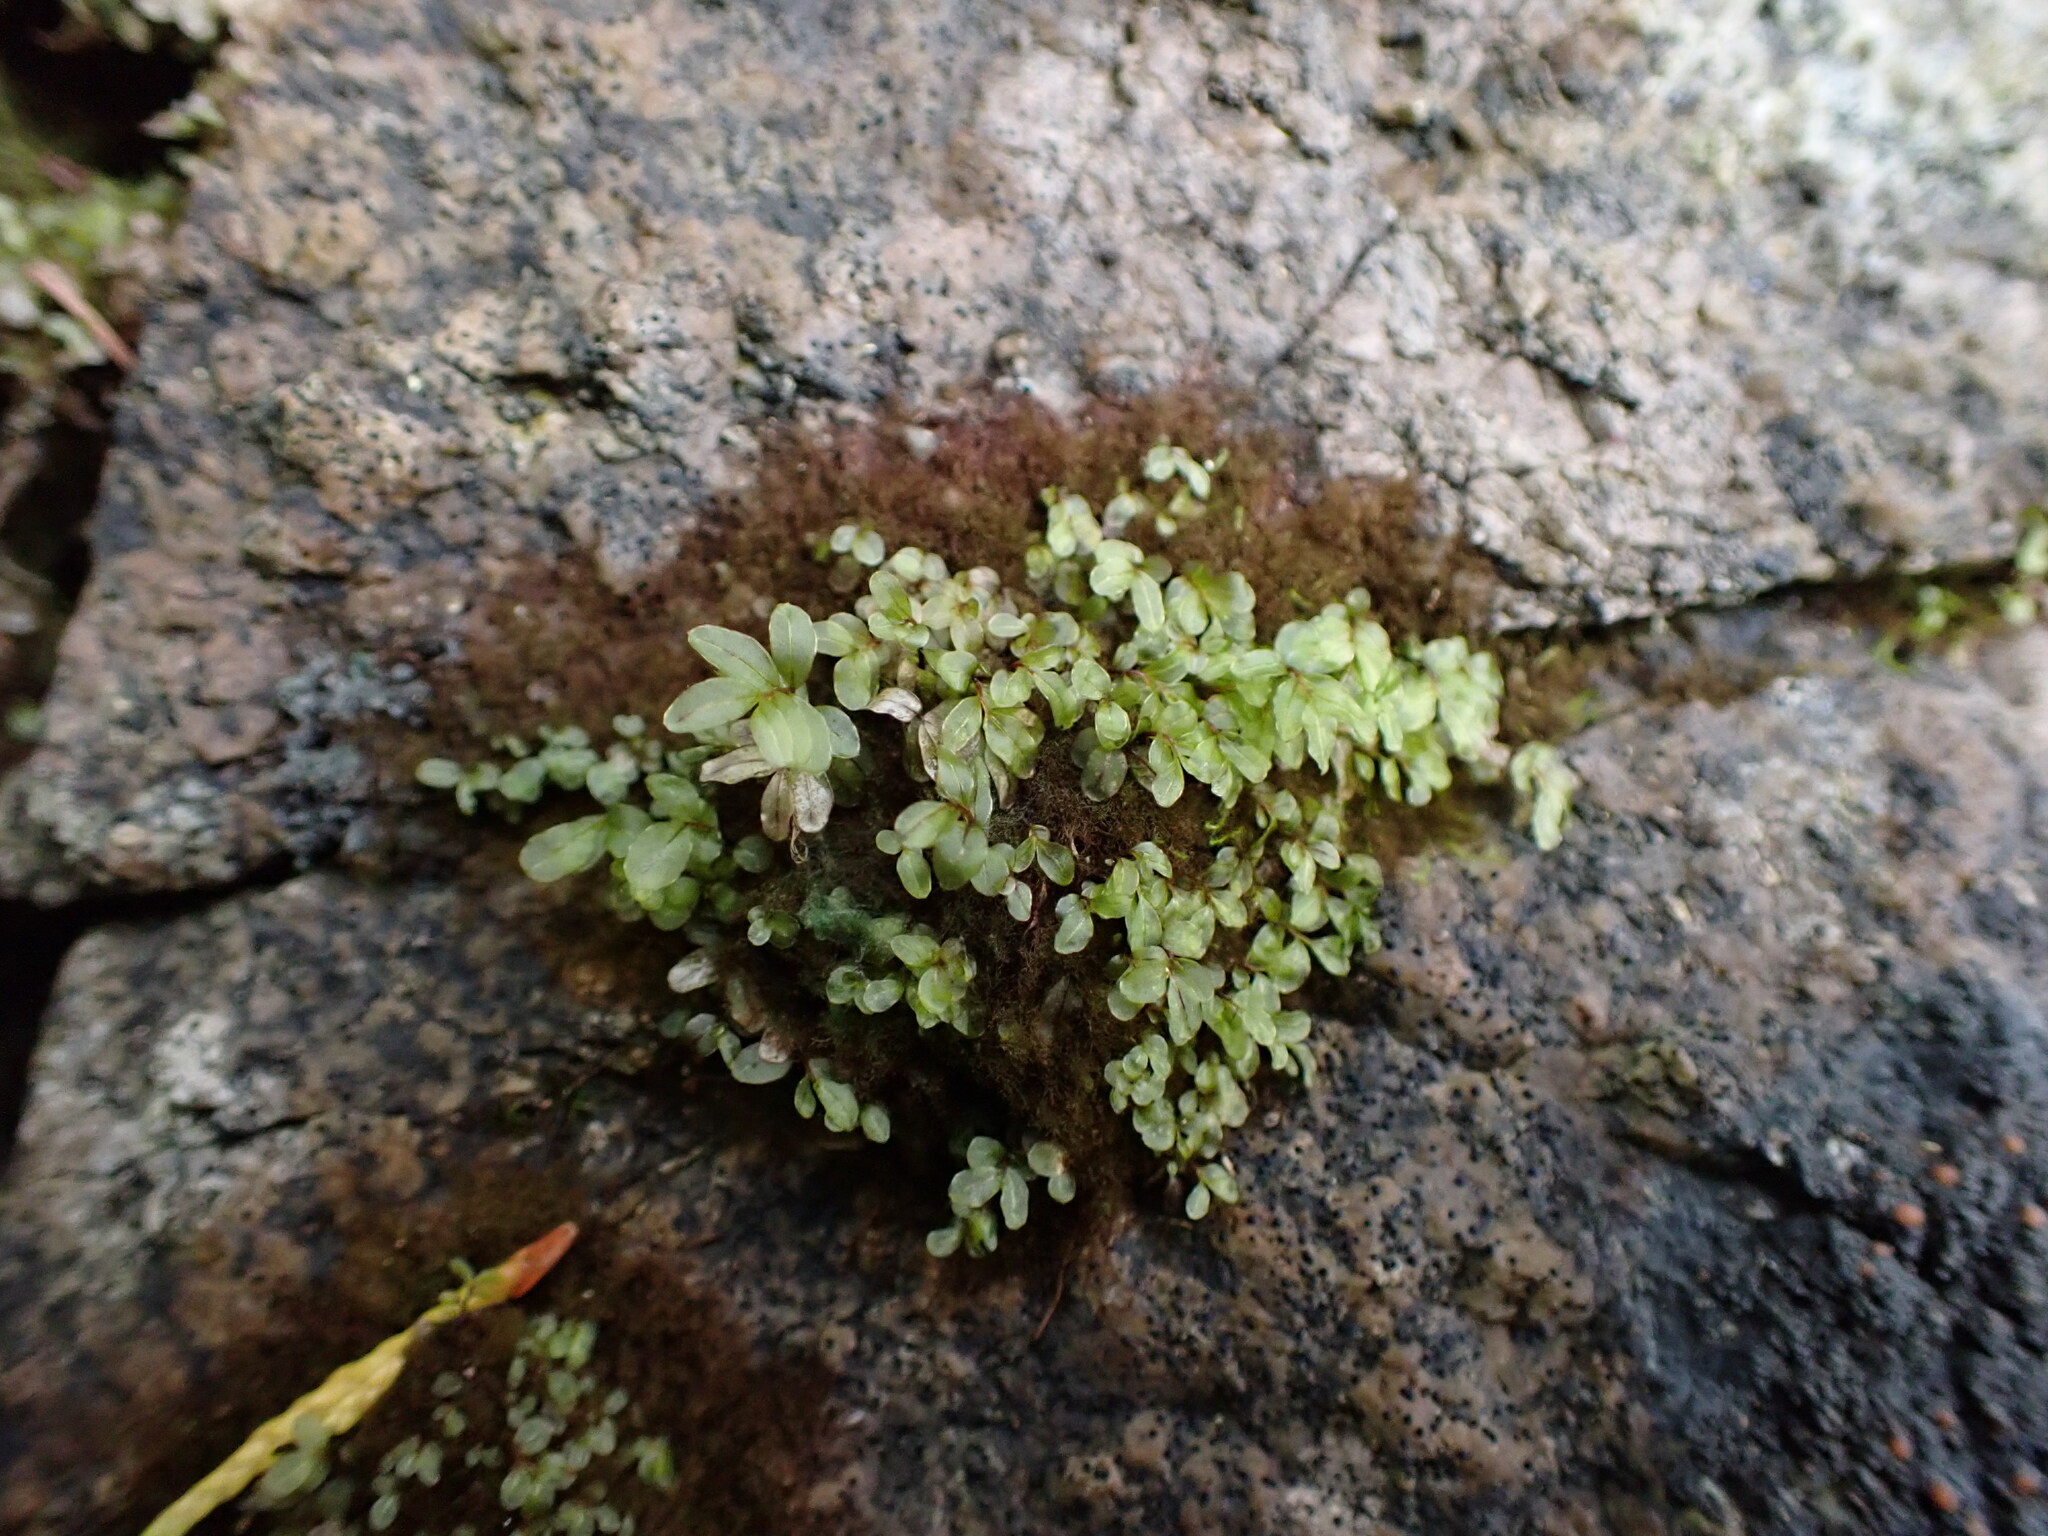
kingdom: Plantae
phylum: Bryophyta
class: Bryopsida
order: Bryales
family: Mniaceae
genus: Rhizomnium
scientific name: Rhizomnium glabrescens
